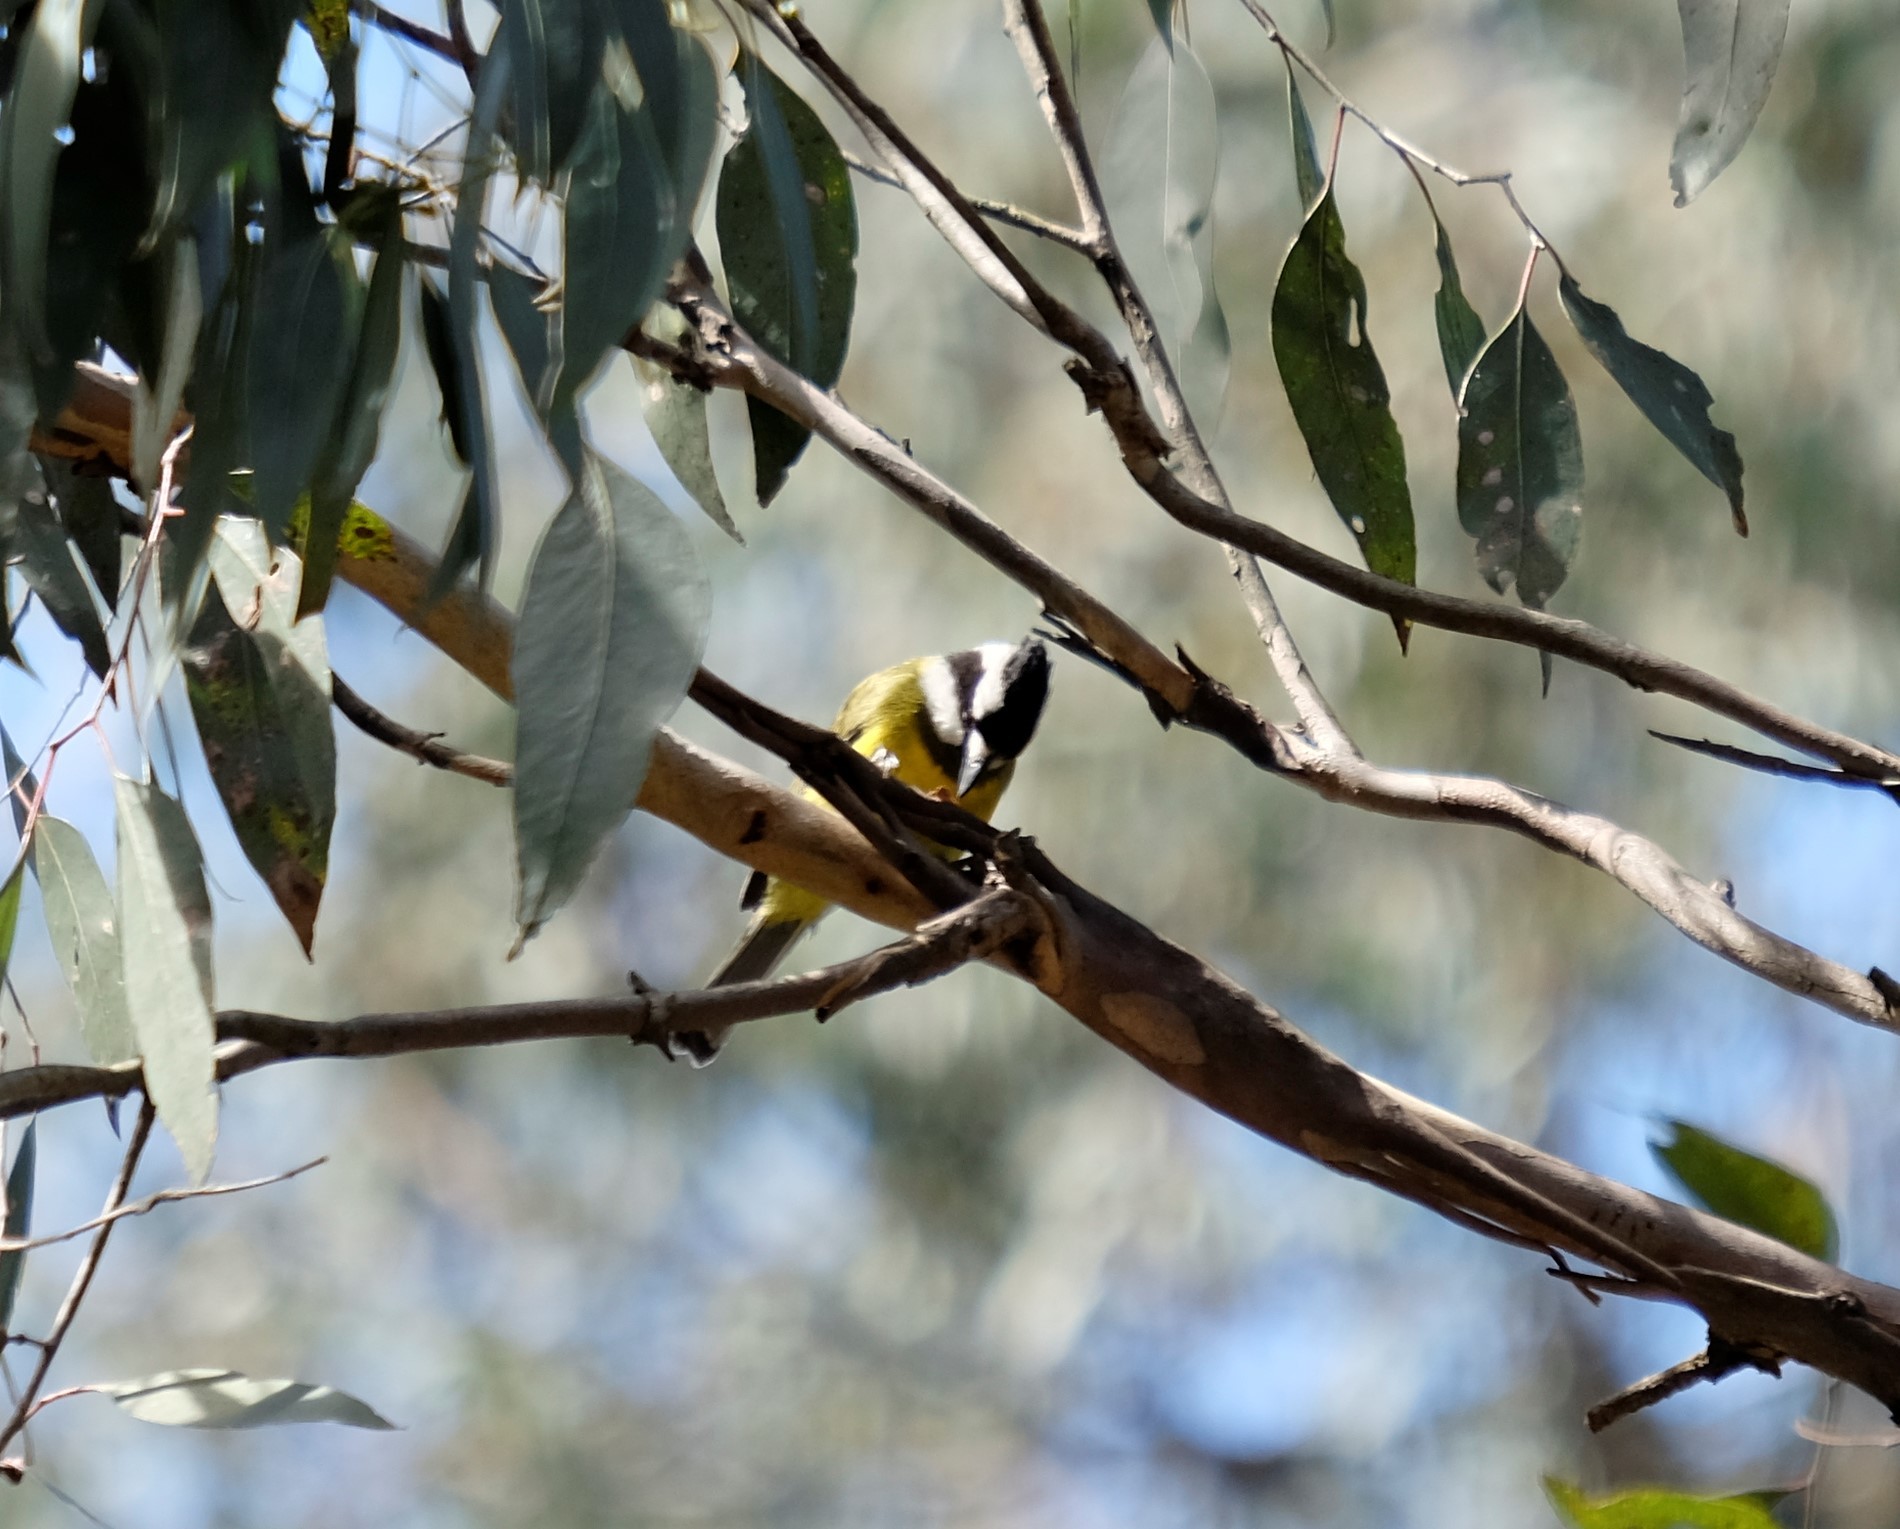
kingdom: Animalia
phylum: Chordata
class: Aves
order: Passeriformes
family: Pachycephalidae
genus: Falcunculus
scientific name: Falcunculus frontatus
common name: Crested shriketit
